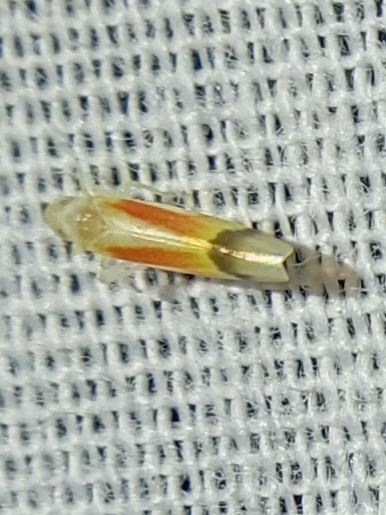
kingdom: Animalia
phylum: Arthropoda
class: Insecta
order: Hemiptera
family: Cicadellidae
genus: Ossiannilssonola
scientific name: Ossiannilssonola flavomarginata
